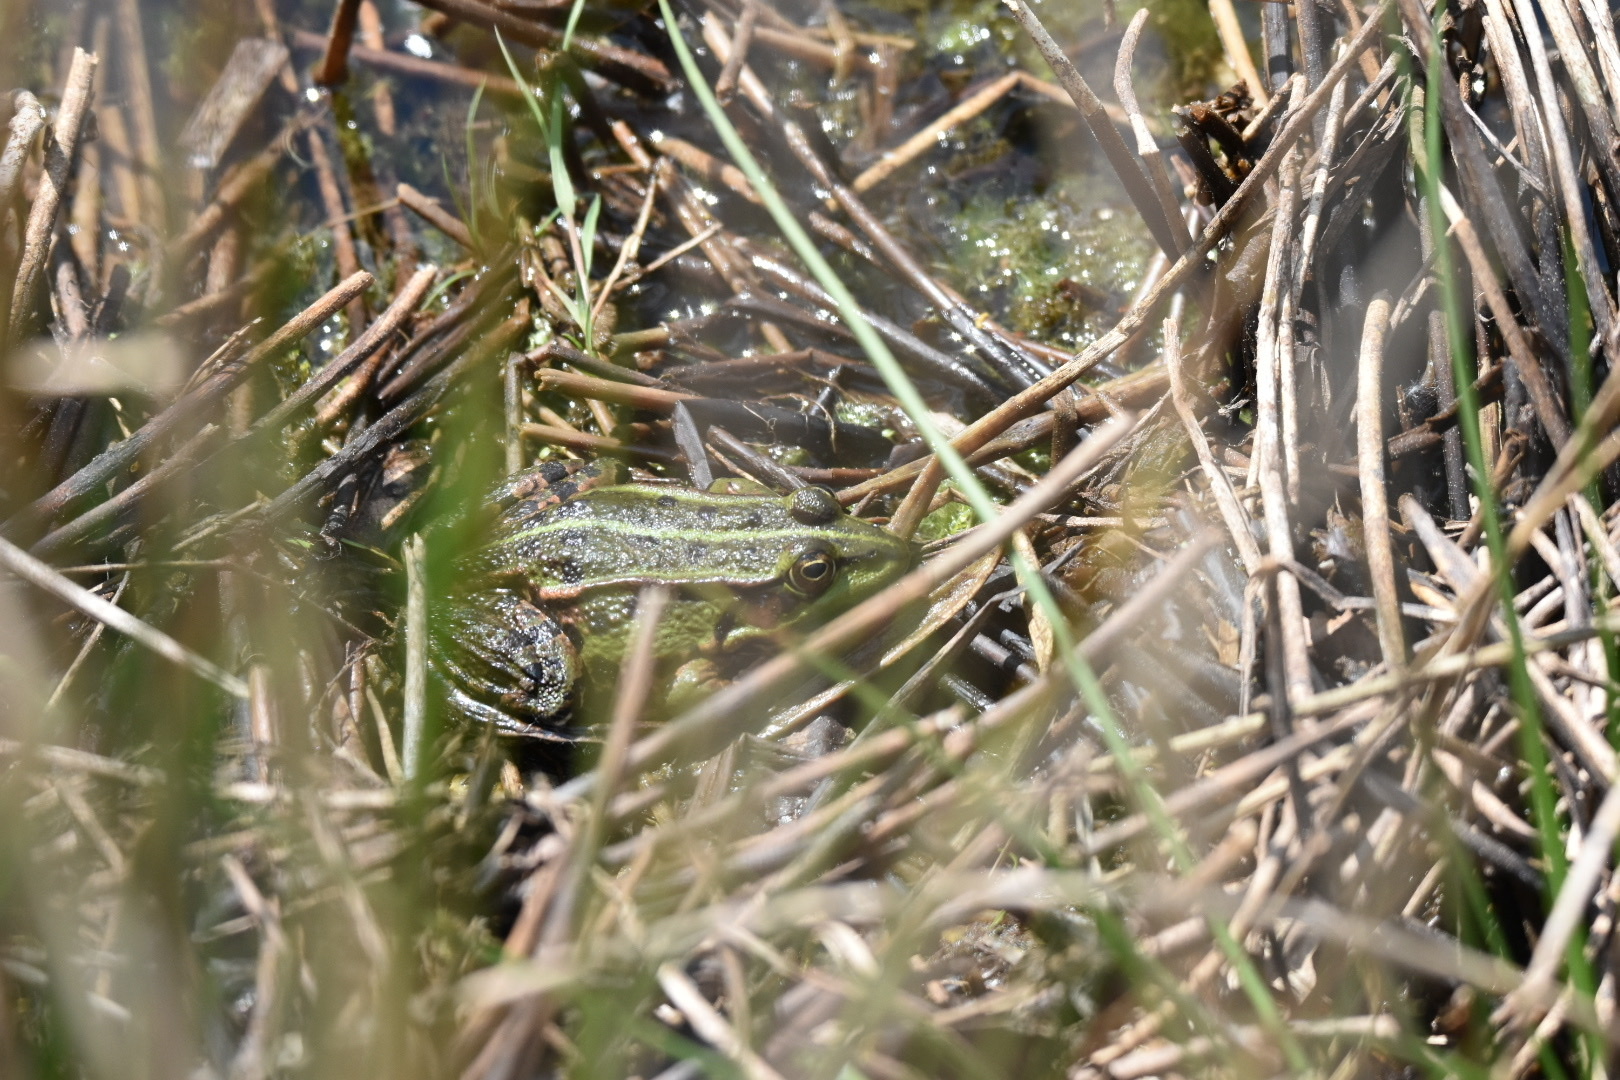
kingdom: Animalia
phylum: Chordata
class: Amphibia
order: Anura
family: Ranidae
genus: Pelophylax
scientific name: Pelophylax
